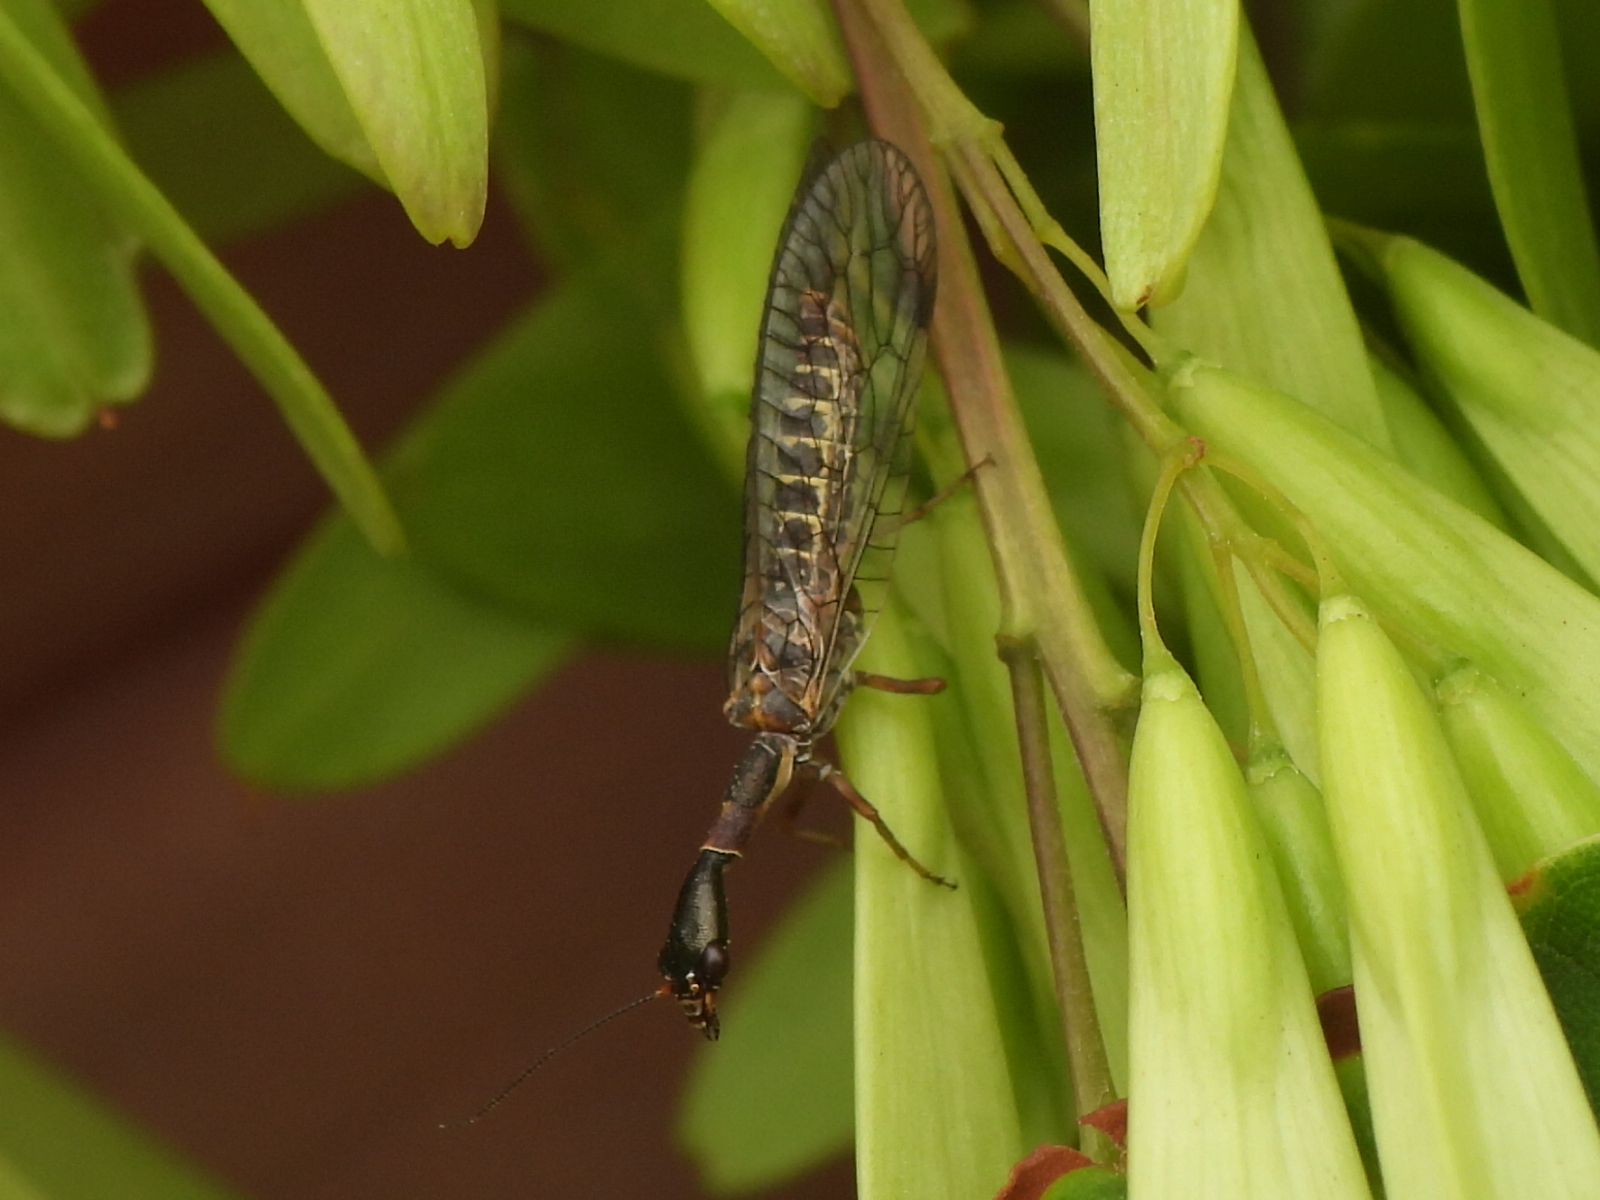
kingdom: Animalia
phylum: Arthropoda
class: Insecta
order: Raphidioptera
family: Raphidiidae
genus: Agulla
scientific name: Agulla bicolor
